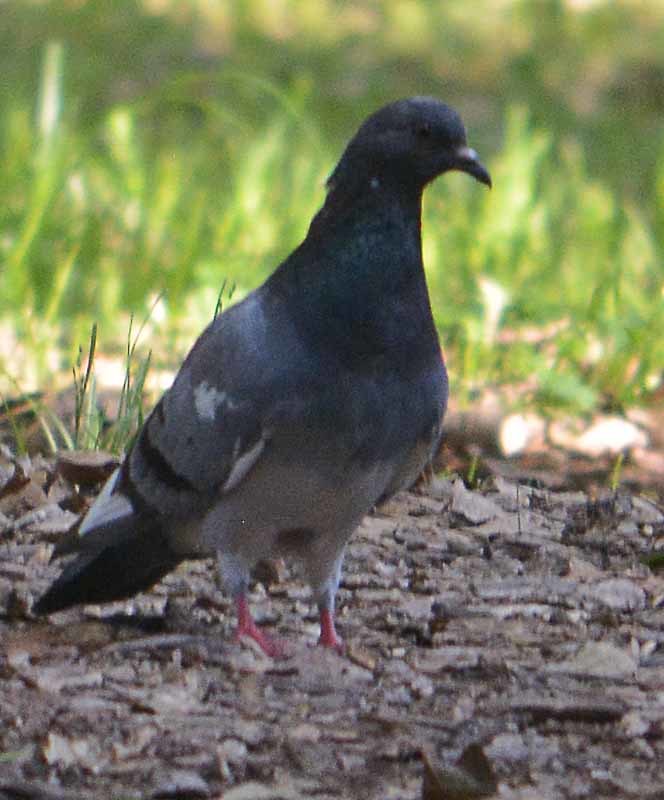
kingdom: Animalia
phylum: Chordata
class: Aves
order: Columbiformes
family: Columbidae
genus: Columba
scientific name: Columba livia
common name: Rock pigeon
